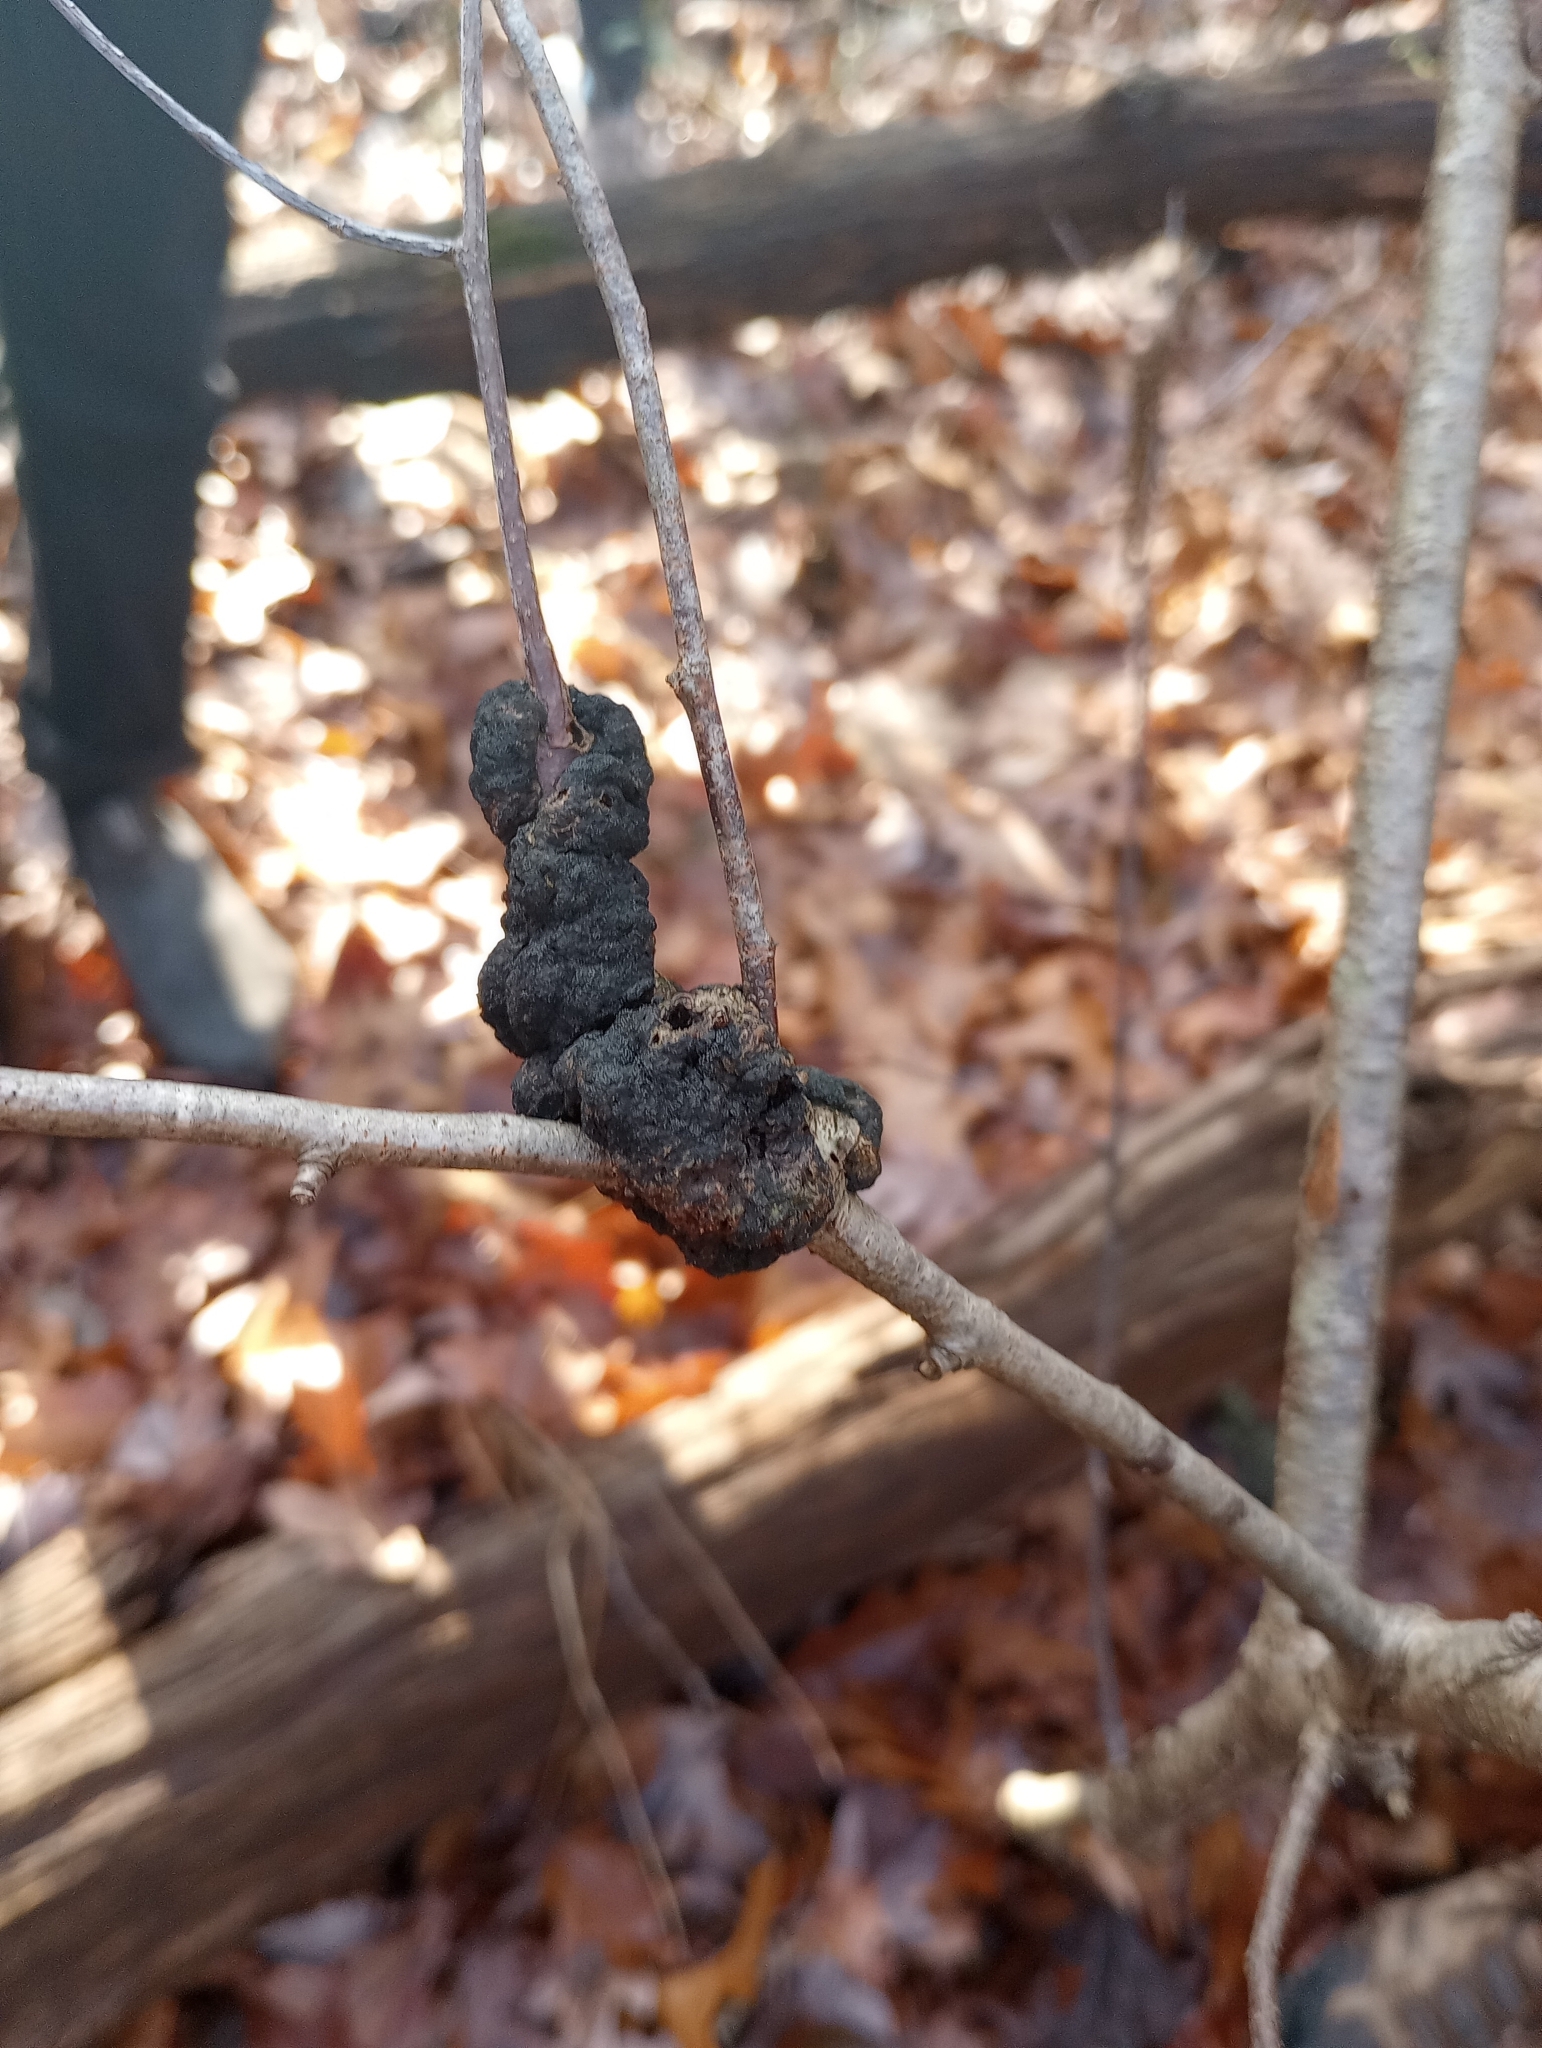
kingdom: Fungi
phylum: Ascomycota
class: Dothideomycetes
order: Venturiales
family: Venturiaceae
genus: Apiosporina
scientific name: Apiosporina morbosa
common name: Black knot
